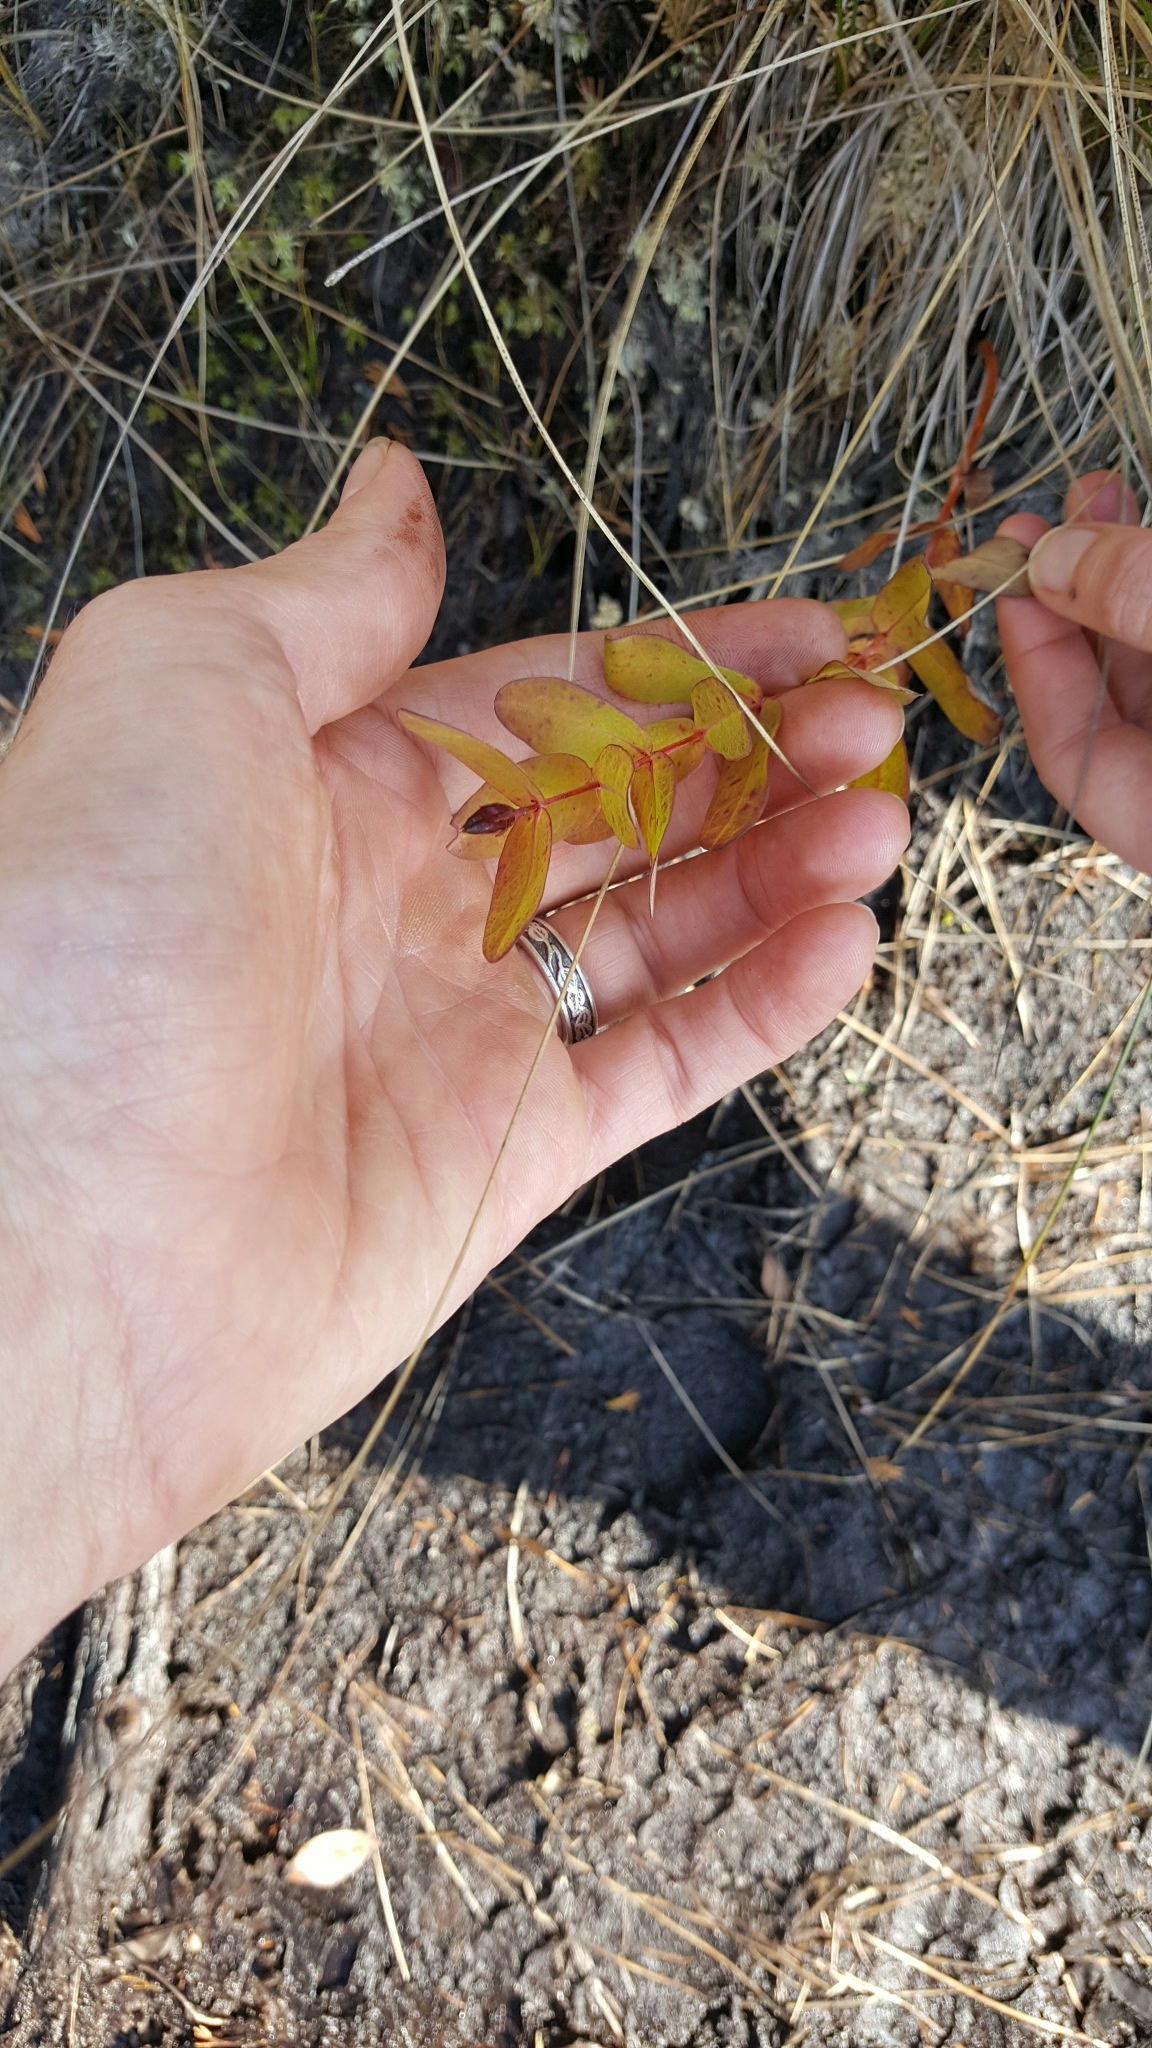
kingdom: Plantae
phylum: Tracheophyta
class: Magnoliopsida
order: Malpighiales
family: Hypericaceae
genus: Triadenum
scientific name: Triadenum virginicum
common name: Marsh st. john's-wort
